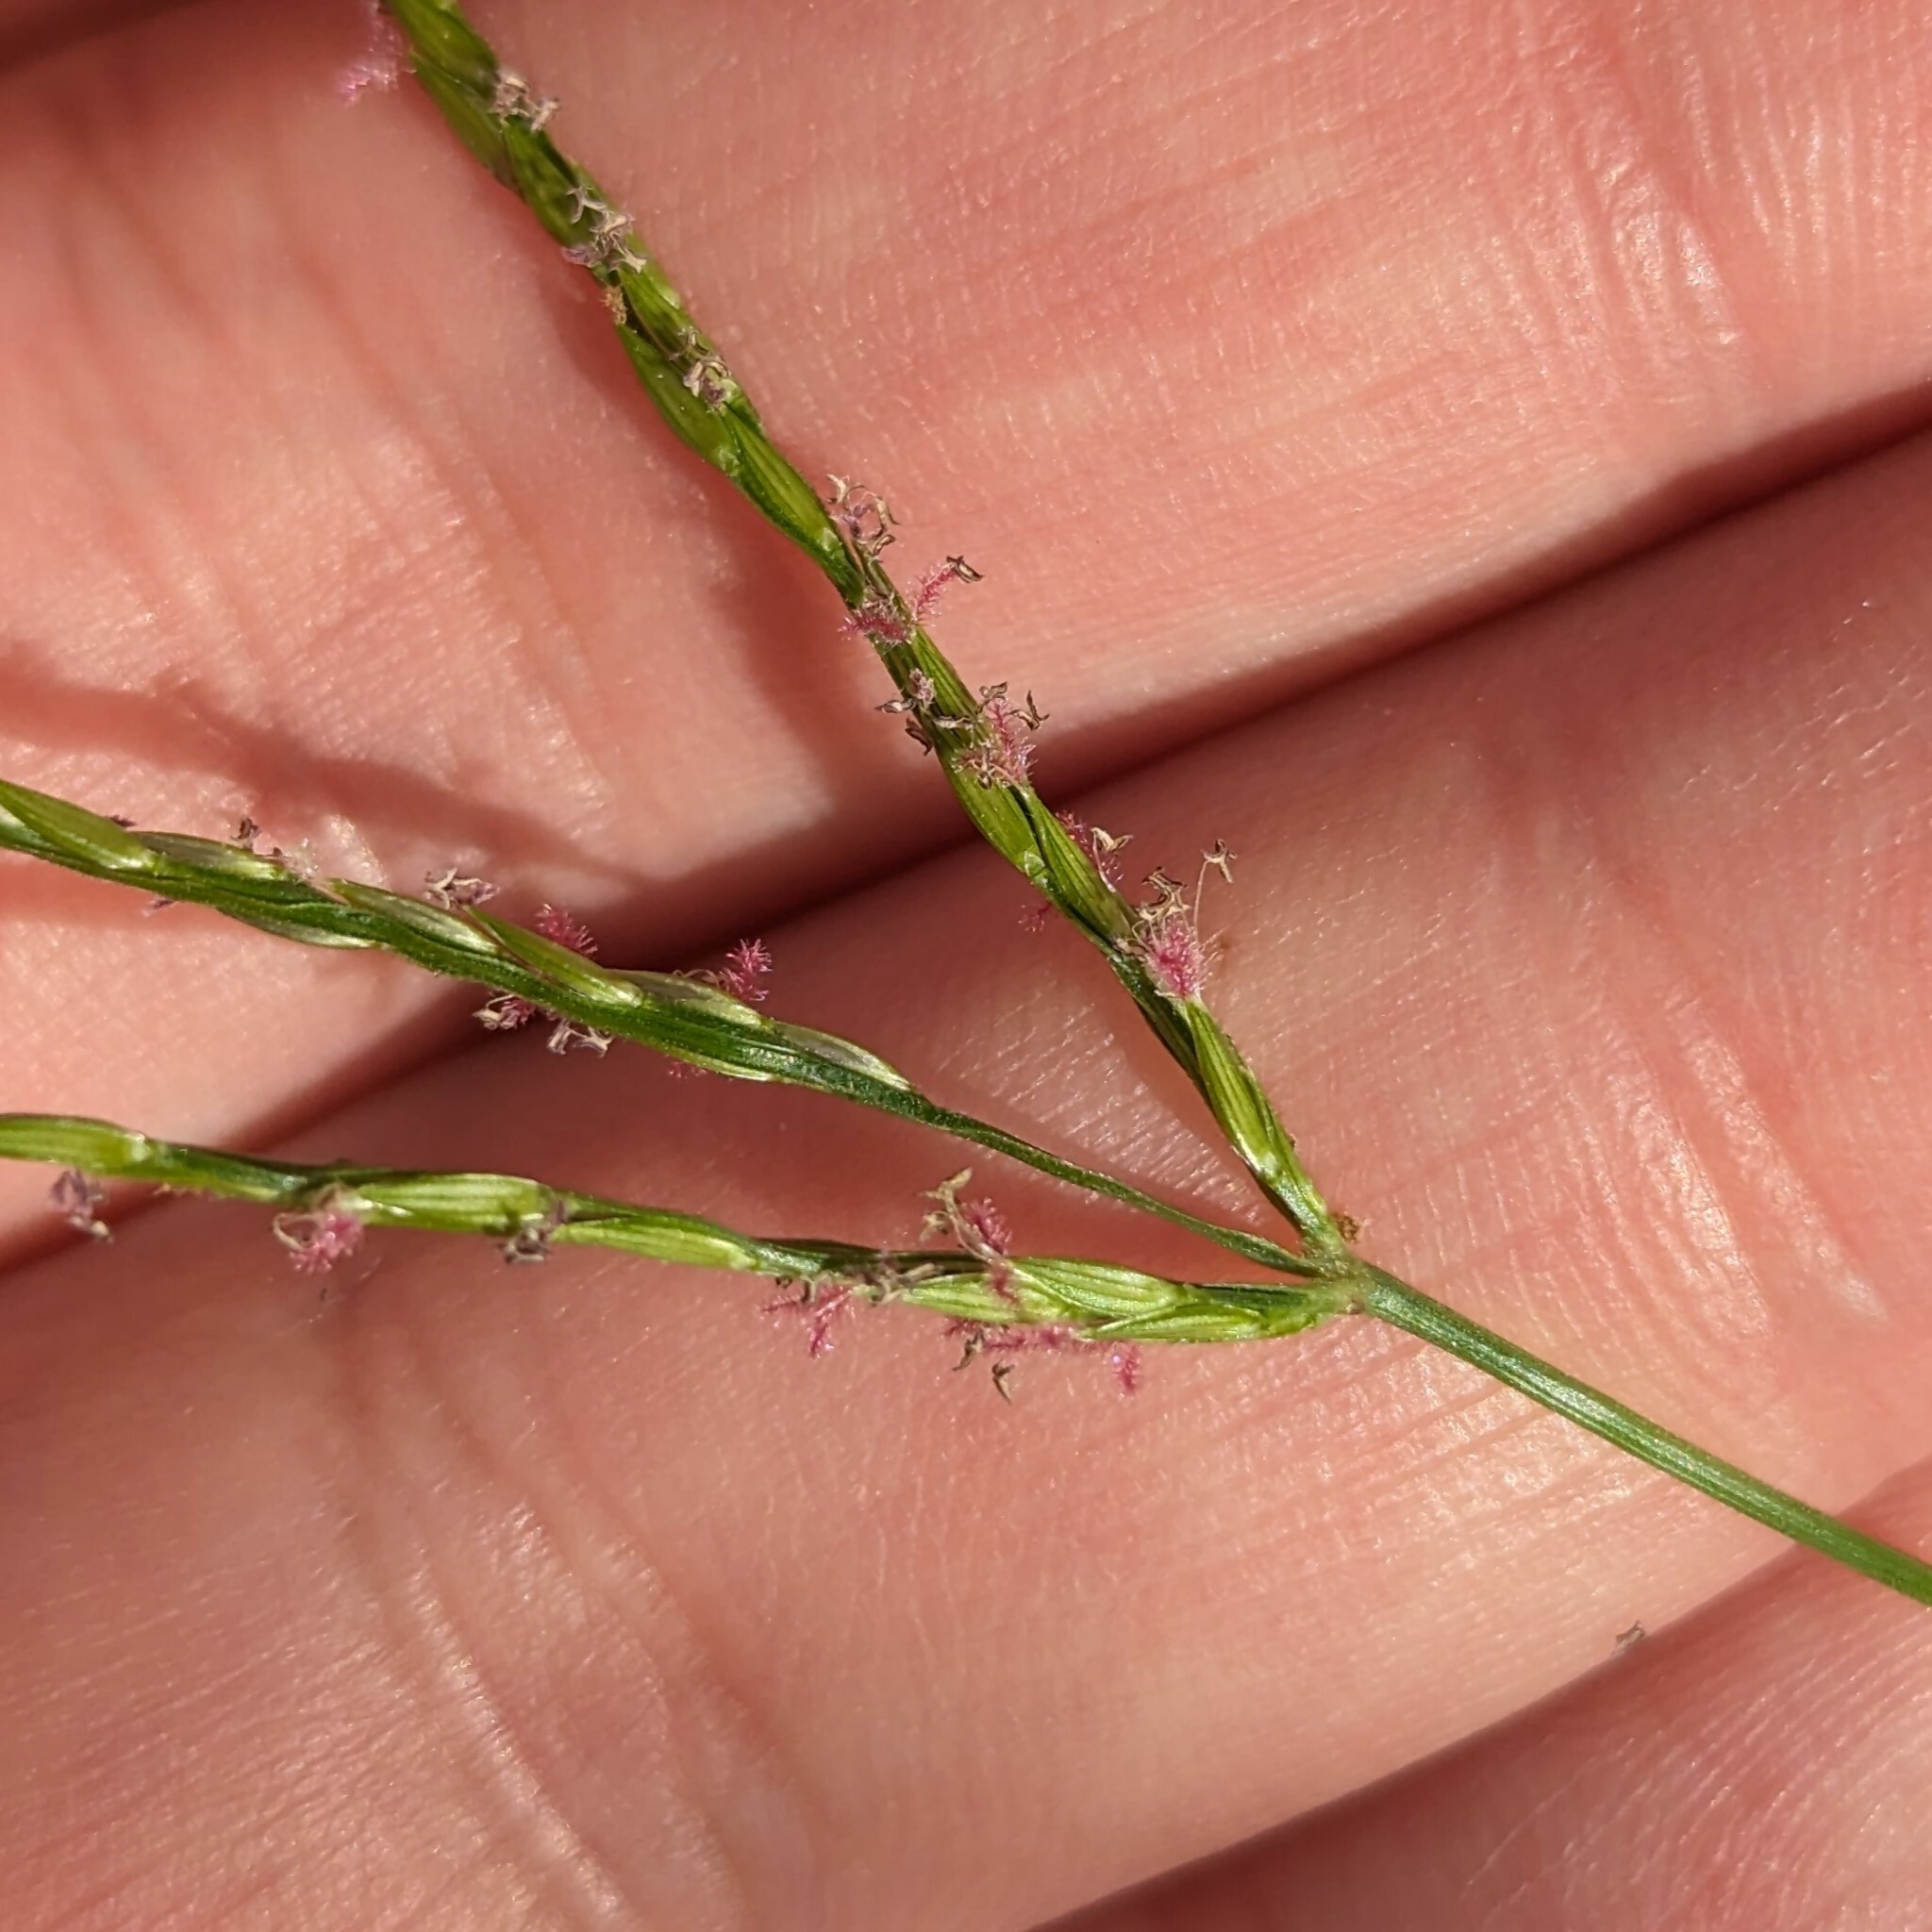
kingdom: Plantae
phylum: Tracheophyta
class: Liliopsida
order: Poales
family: Poaceae
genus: Digitaria
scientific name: Digitaria sanguinalis
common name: Hairy crabgrass
